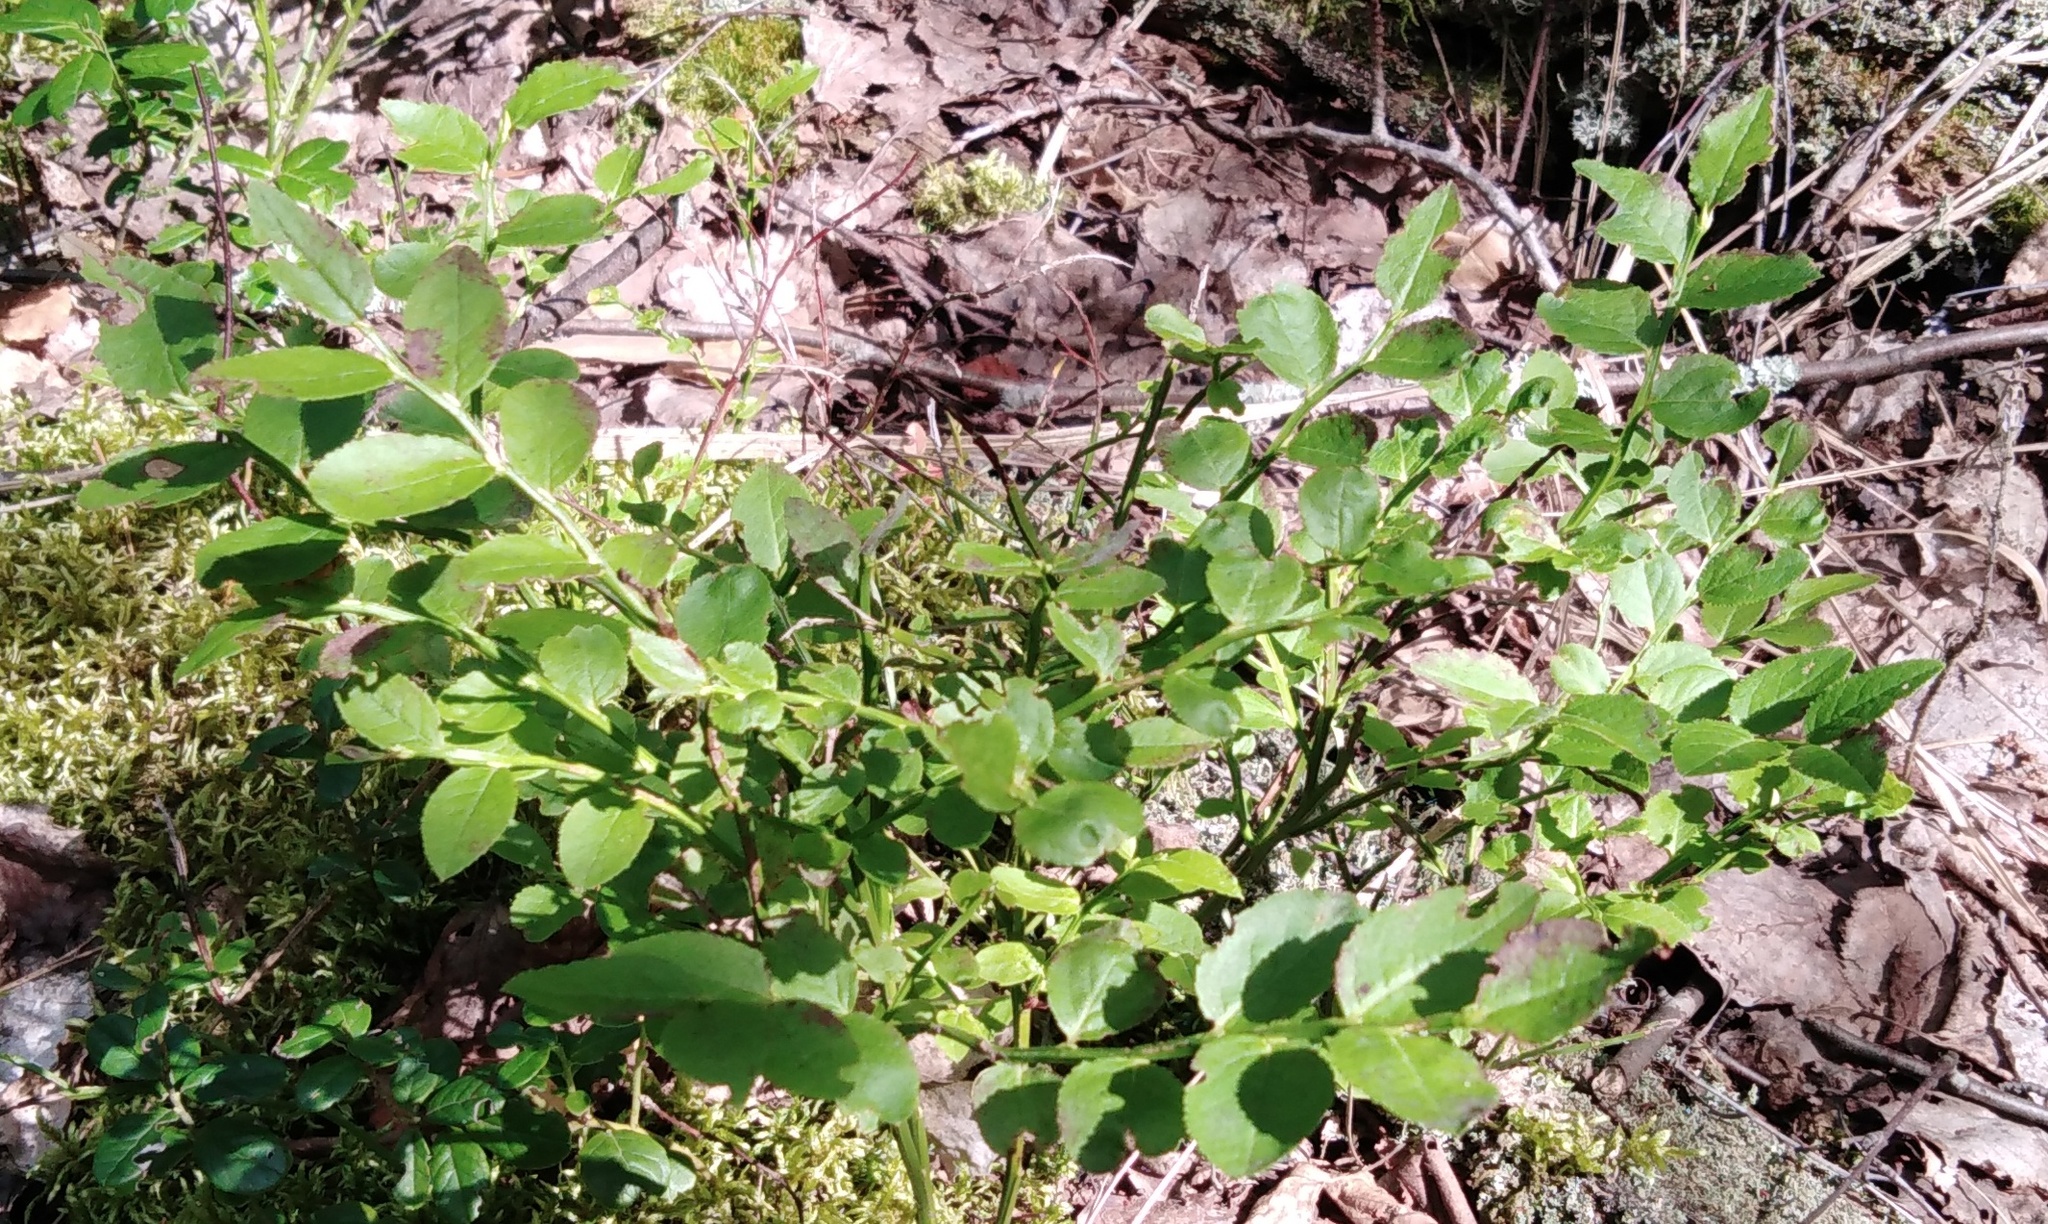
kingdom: Plantae
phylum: Tracheophyta
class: Magnoliopsida
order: Ericales
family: Ericaceae
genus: Vaccinium
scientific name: Vaccinium myrtillus
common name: Bilberry
